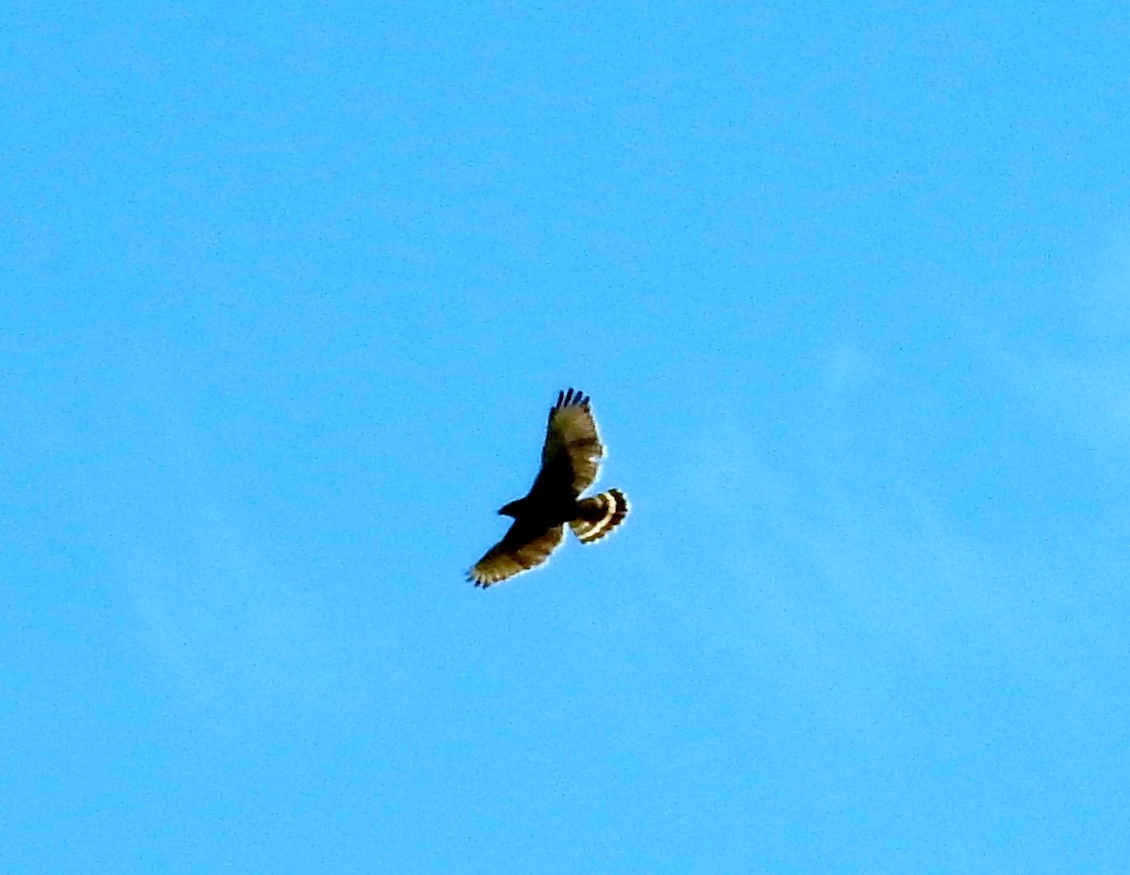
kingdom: Animalia
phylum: Chordata
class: Aves
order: Accipitriformes
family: Accipitridae
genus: Buteo
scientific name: Buteo platypterus
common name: Broad-winged hawk
